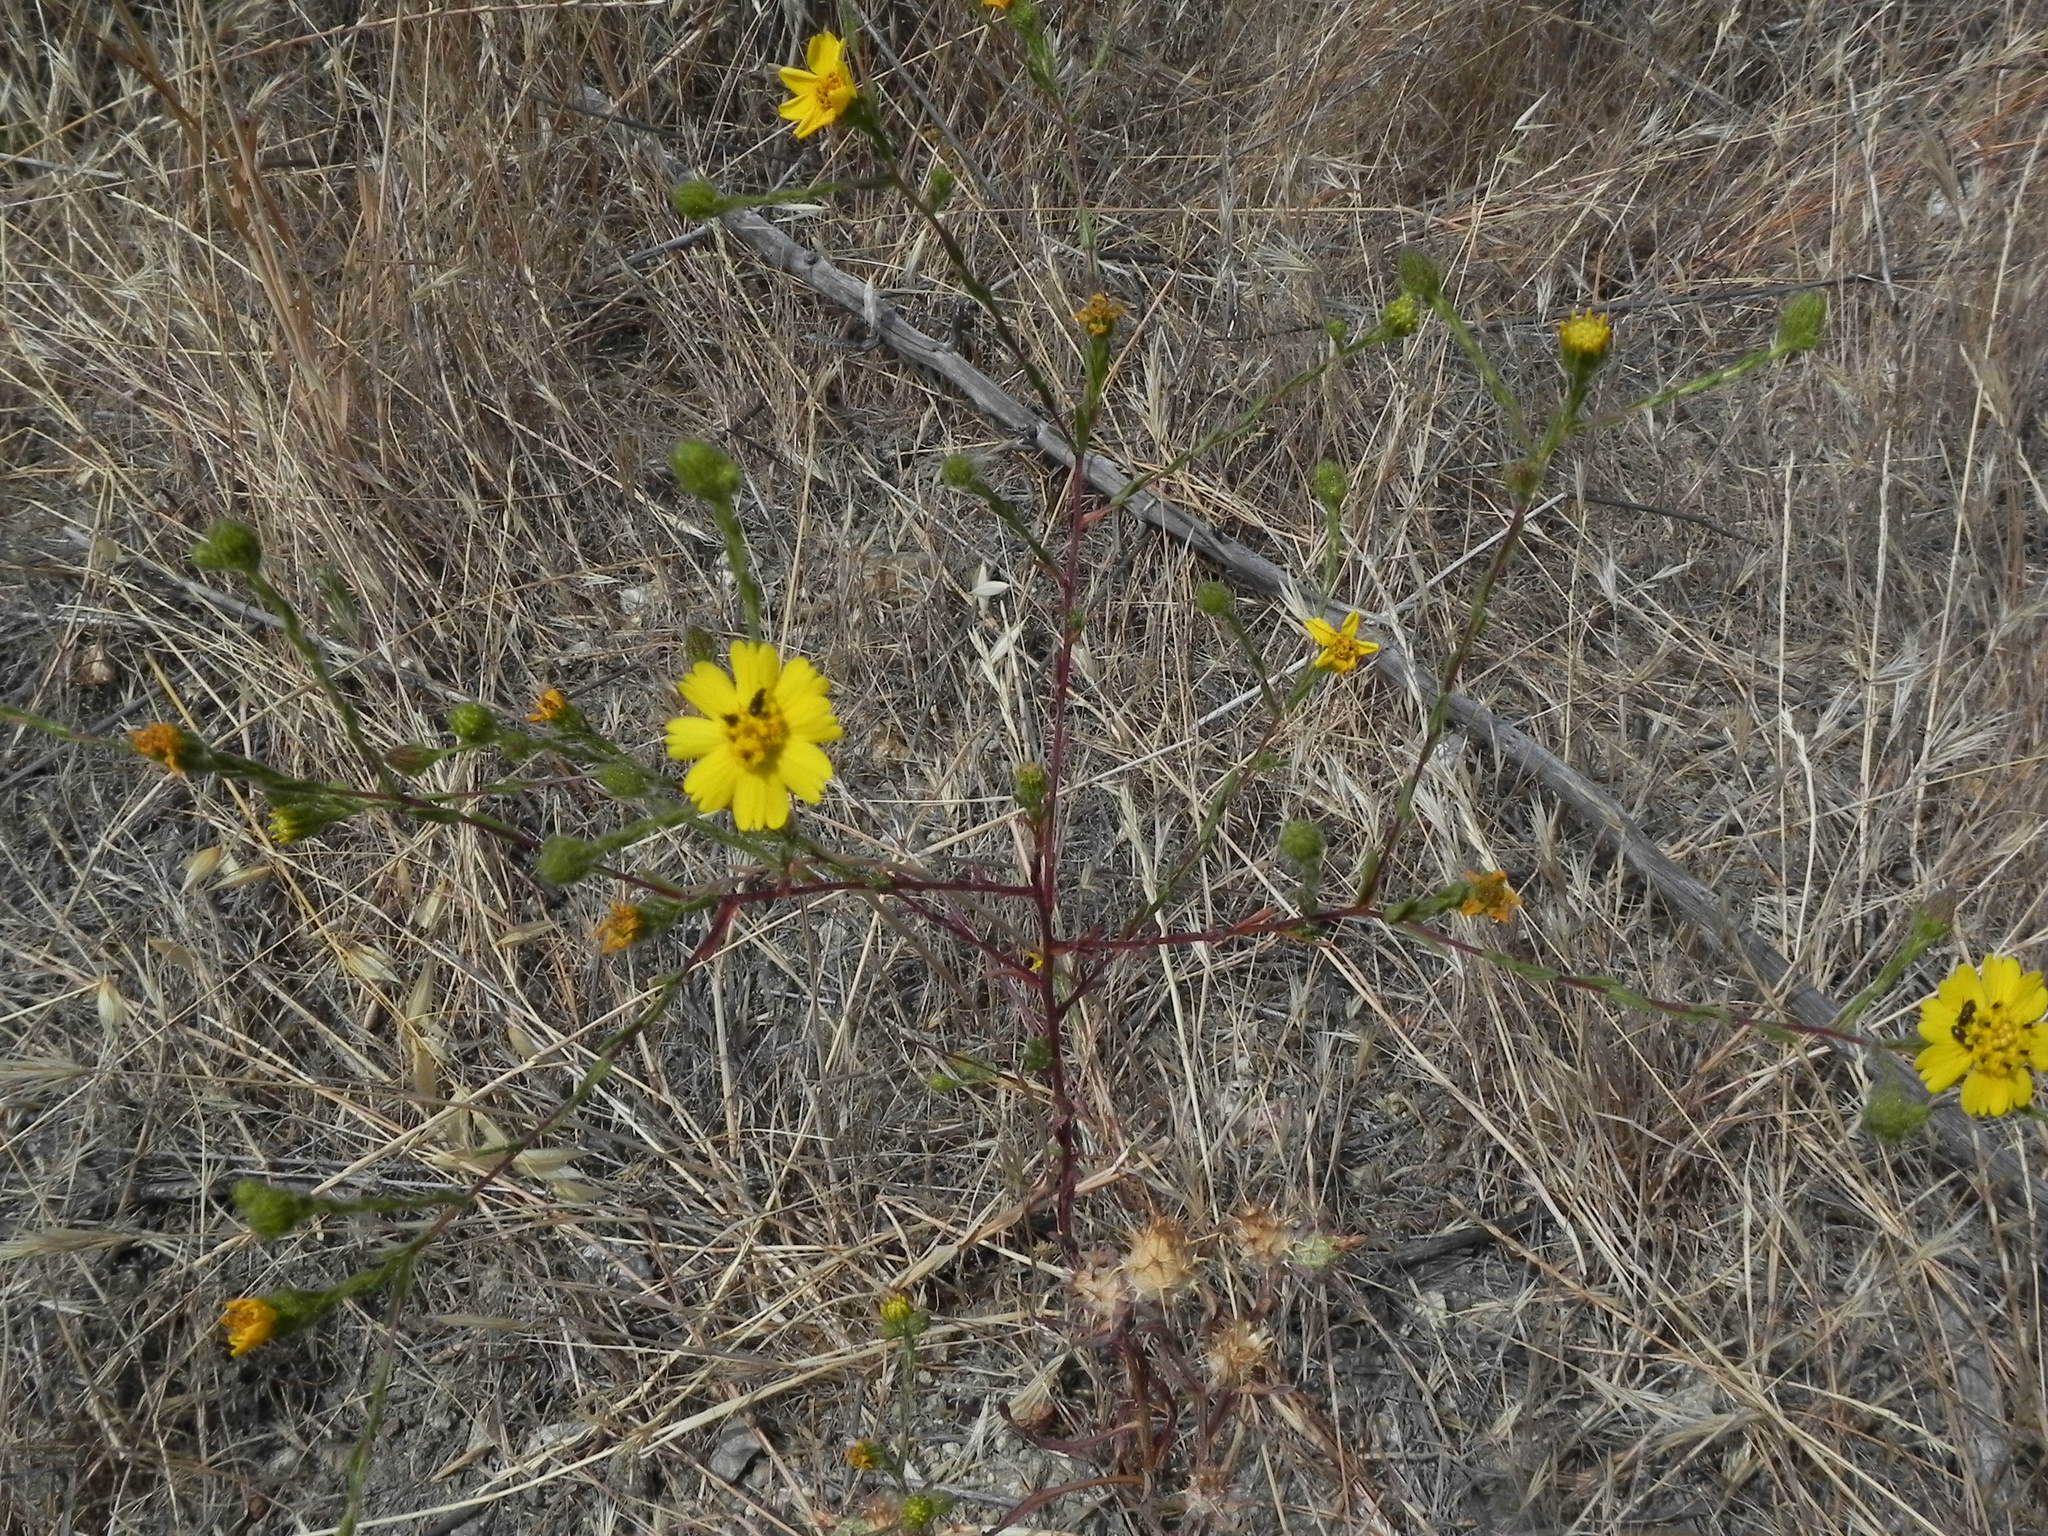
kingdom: Plantae
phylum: Tracheophyta
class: Magnoliopsida
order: Asterales
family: Asteraceae
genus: Deinandra
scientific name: Deinandra conjugens
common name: Otay tarplant
